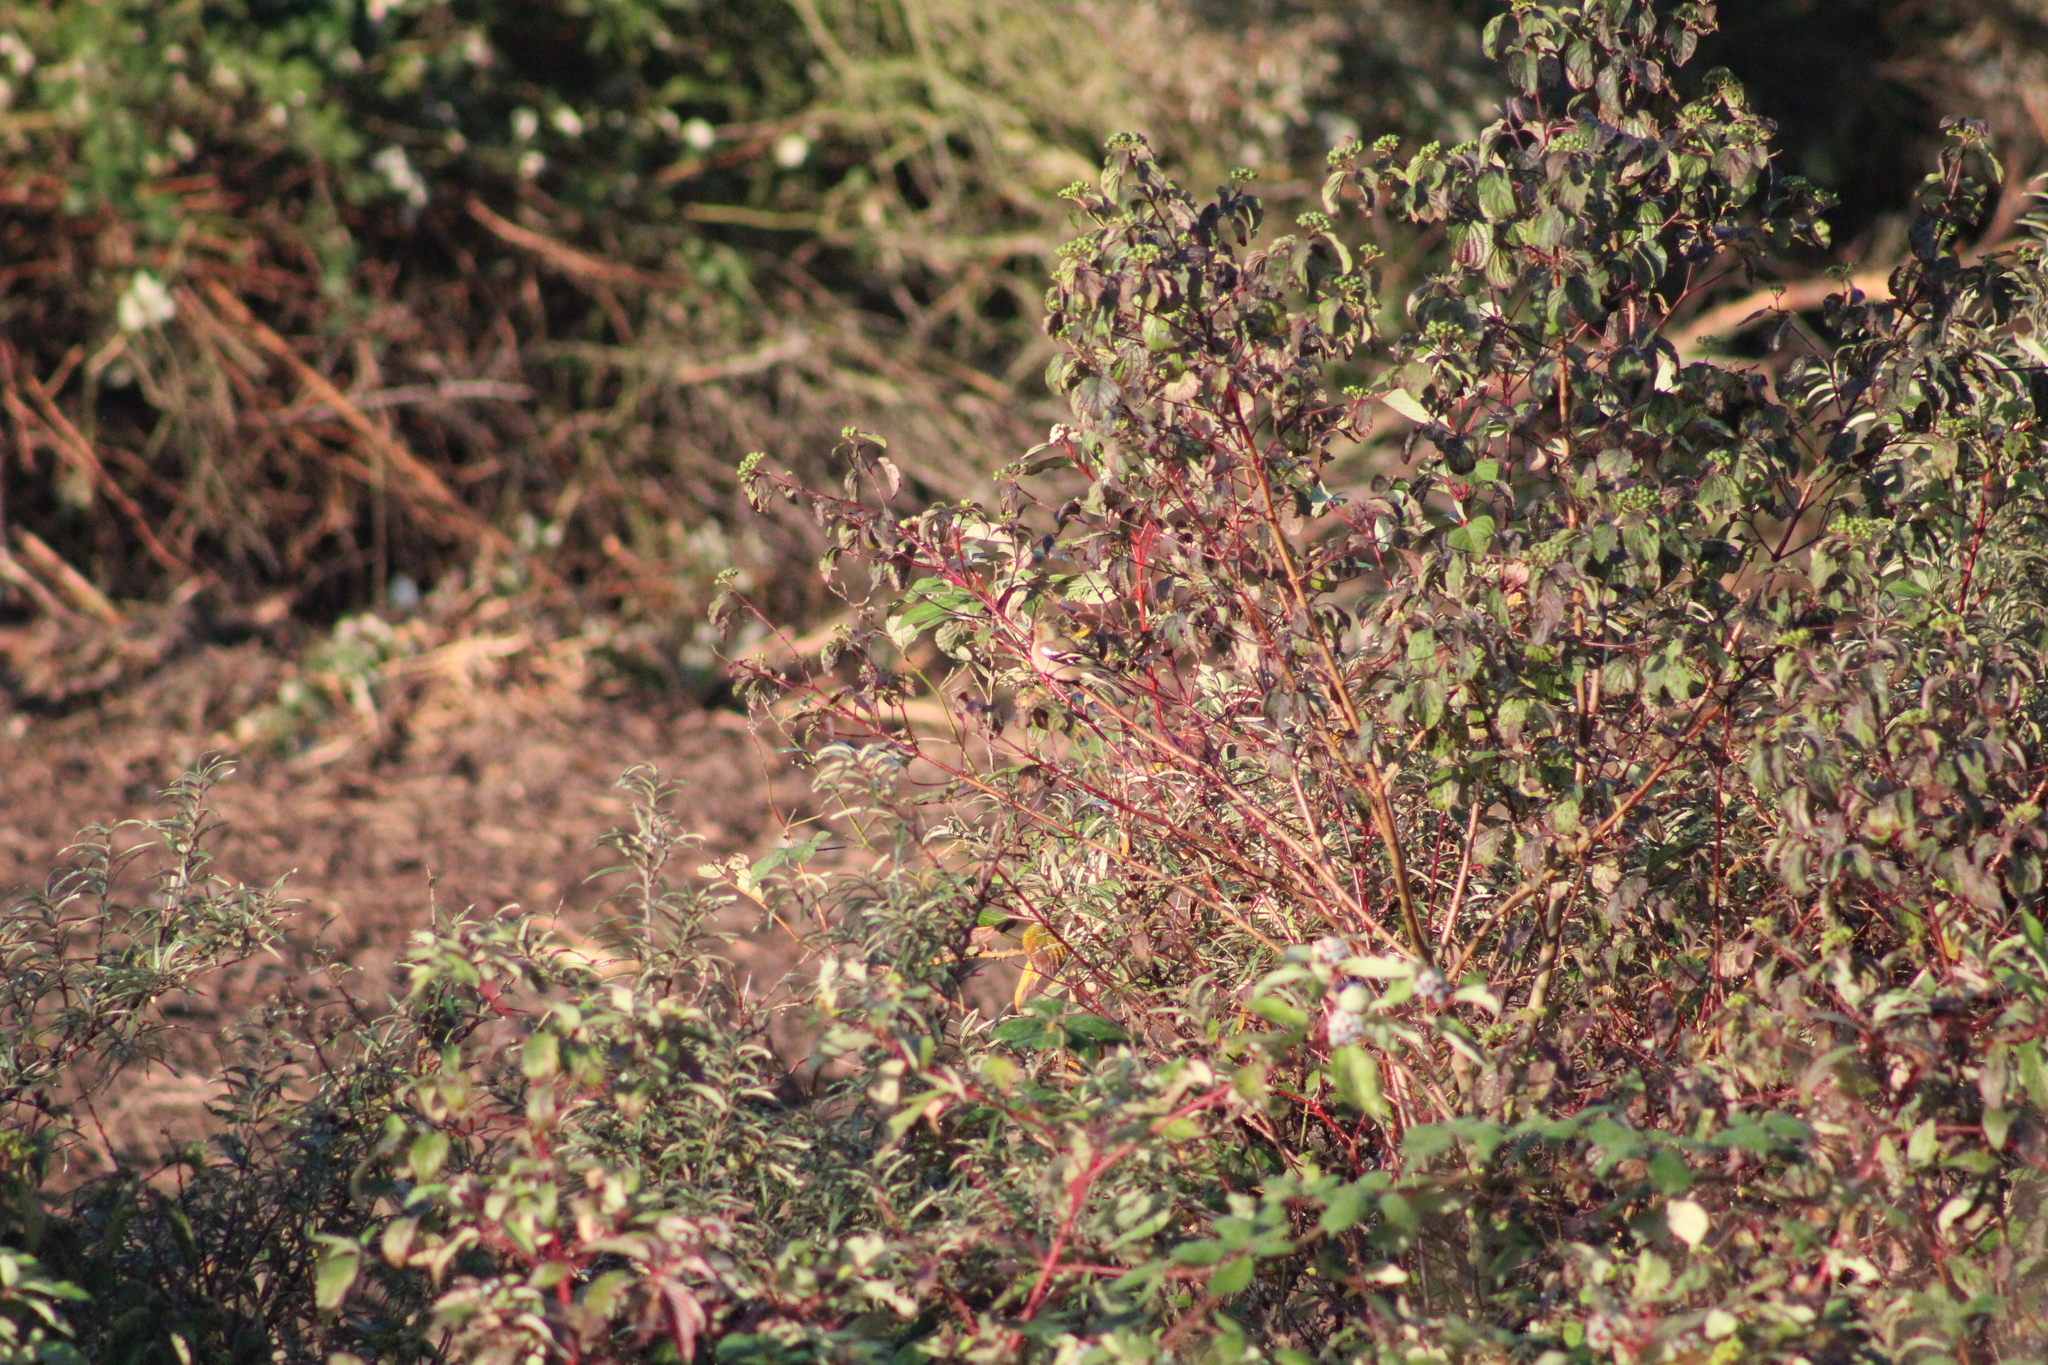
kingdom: Animalia
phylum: Chordata
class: Aves
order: Passeriformes
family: Fringillidae
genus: Fringilla
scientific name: Fringilla coelebs
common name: Common chaffinch
